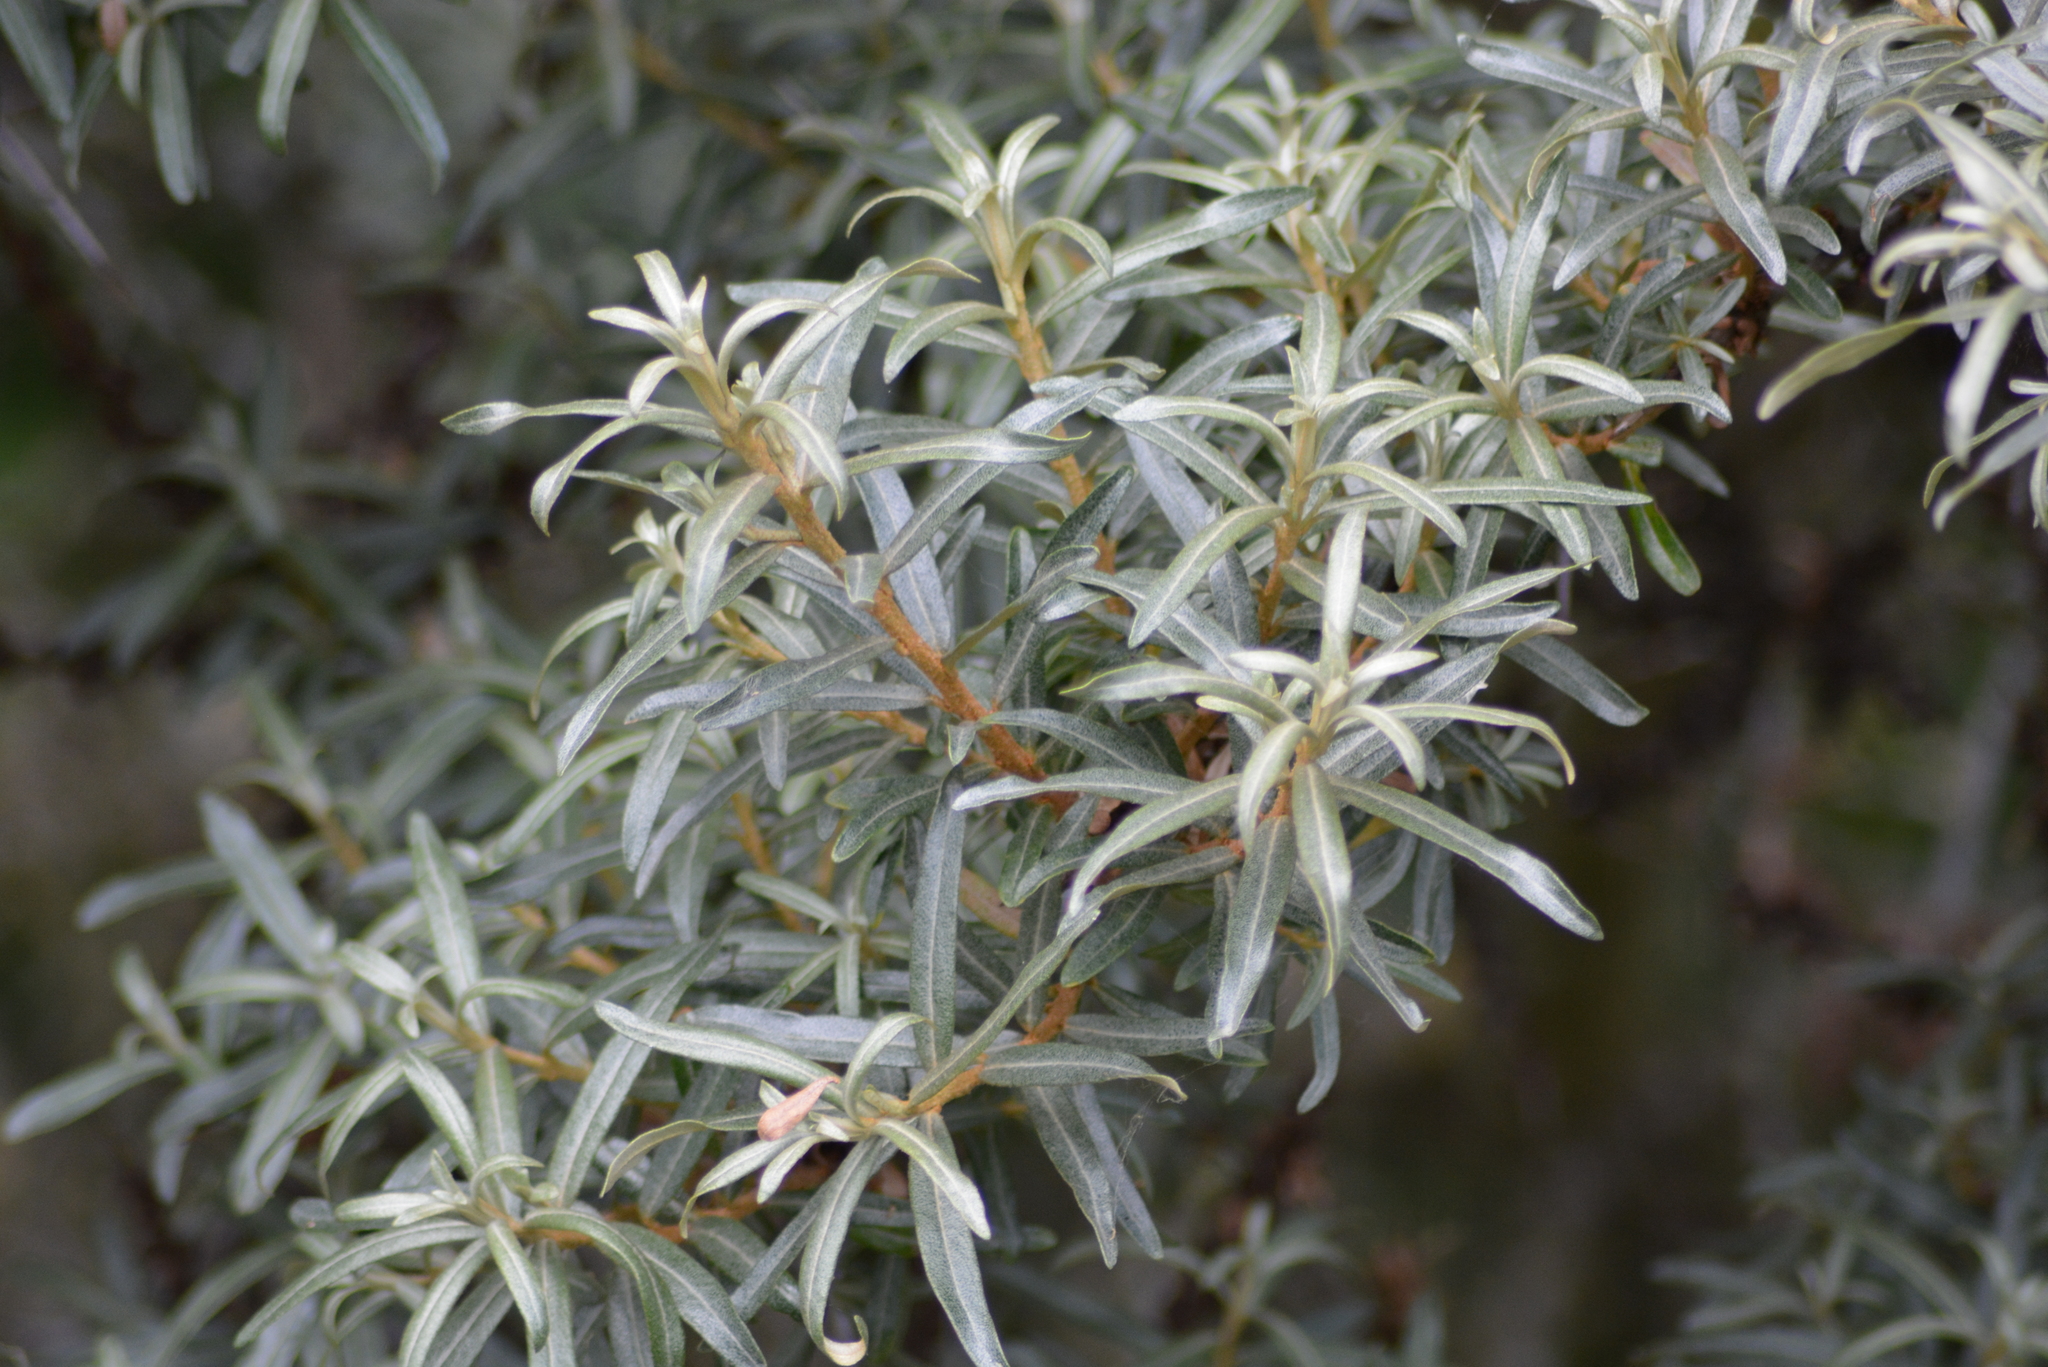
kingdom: Plantae
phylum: Tracheophyta
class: Magnoliopsida
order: Rosales
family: Elaeagnaceae
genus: Hippophae
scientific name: Hippophae rhamnoides
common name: Sea-buckthorn
